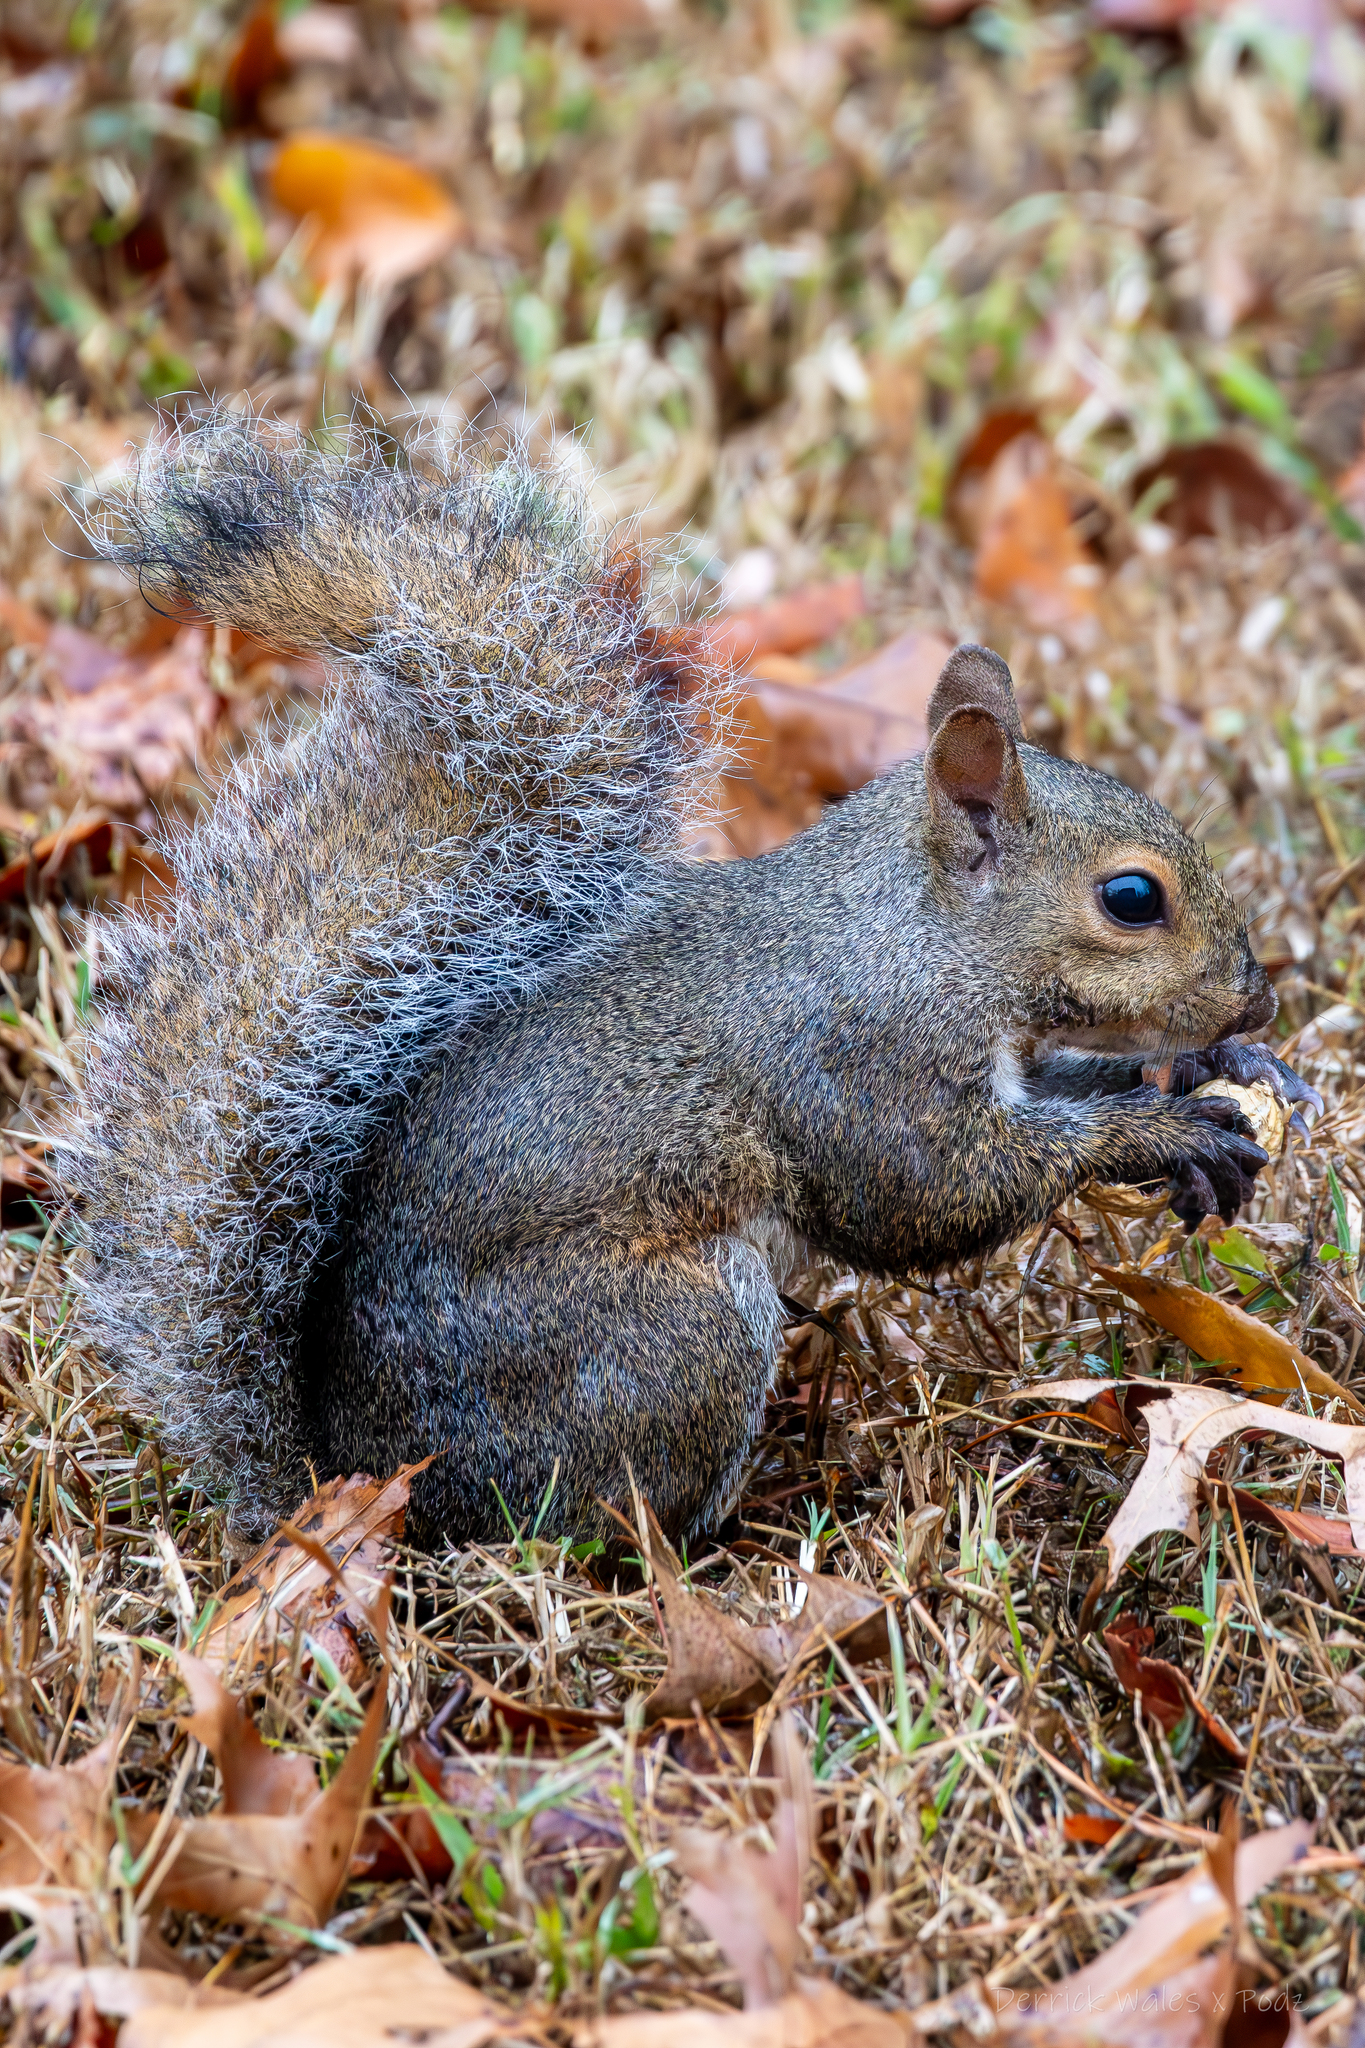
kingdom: Animalia
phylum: Chordata
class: Mammalia
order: Rodentia
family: Sciuridae
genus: Sciurus
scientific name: Sciurus carolinensis
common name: Eastern gray squirrel
